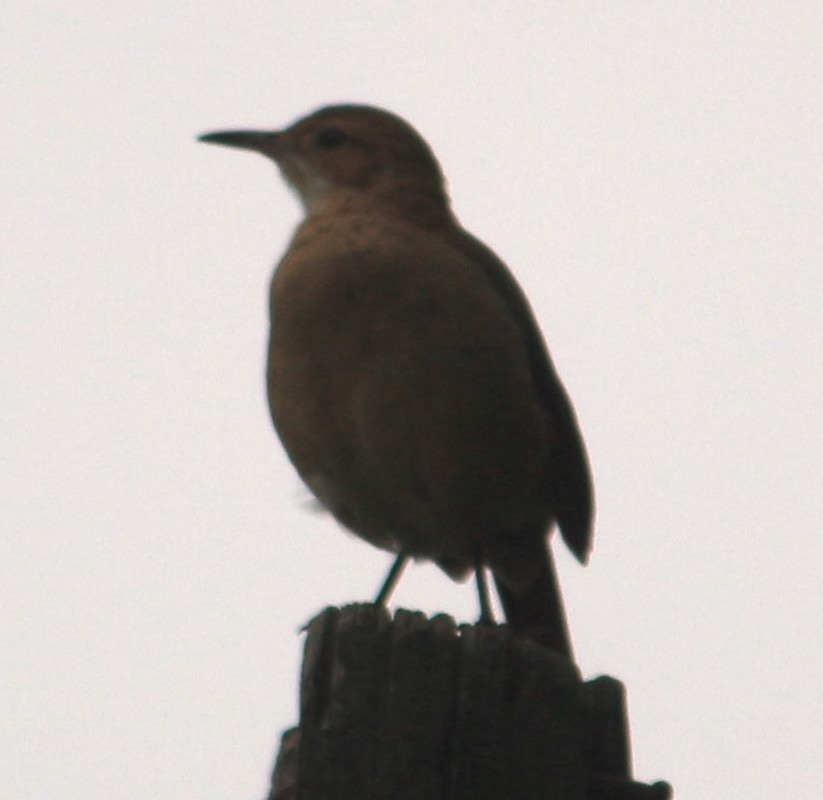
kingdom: Animalia
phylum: Chordata
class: Aves
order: Passeriformes
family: Furnariidae
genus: Furnarius
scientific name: Furnarius rufus
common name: Rufous hornero
